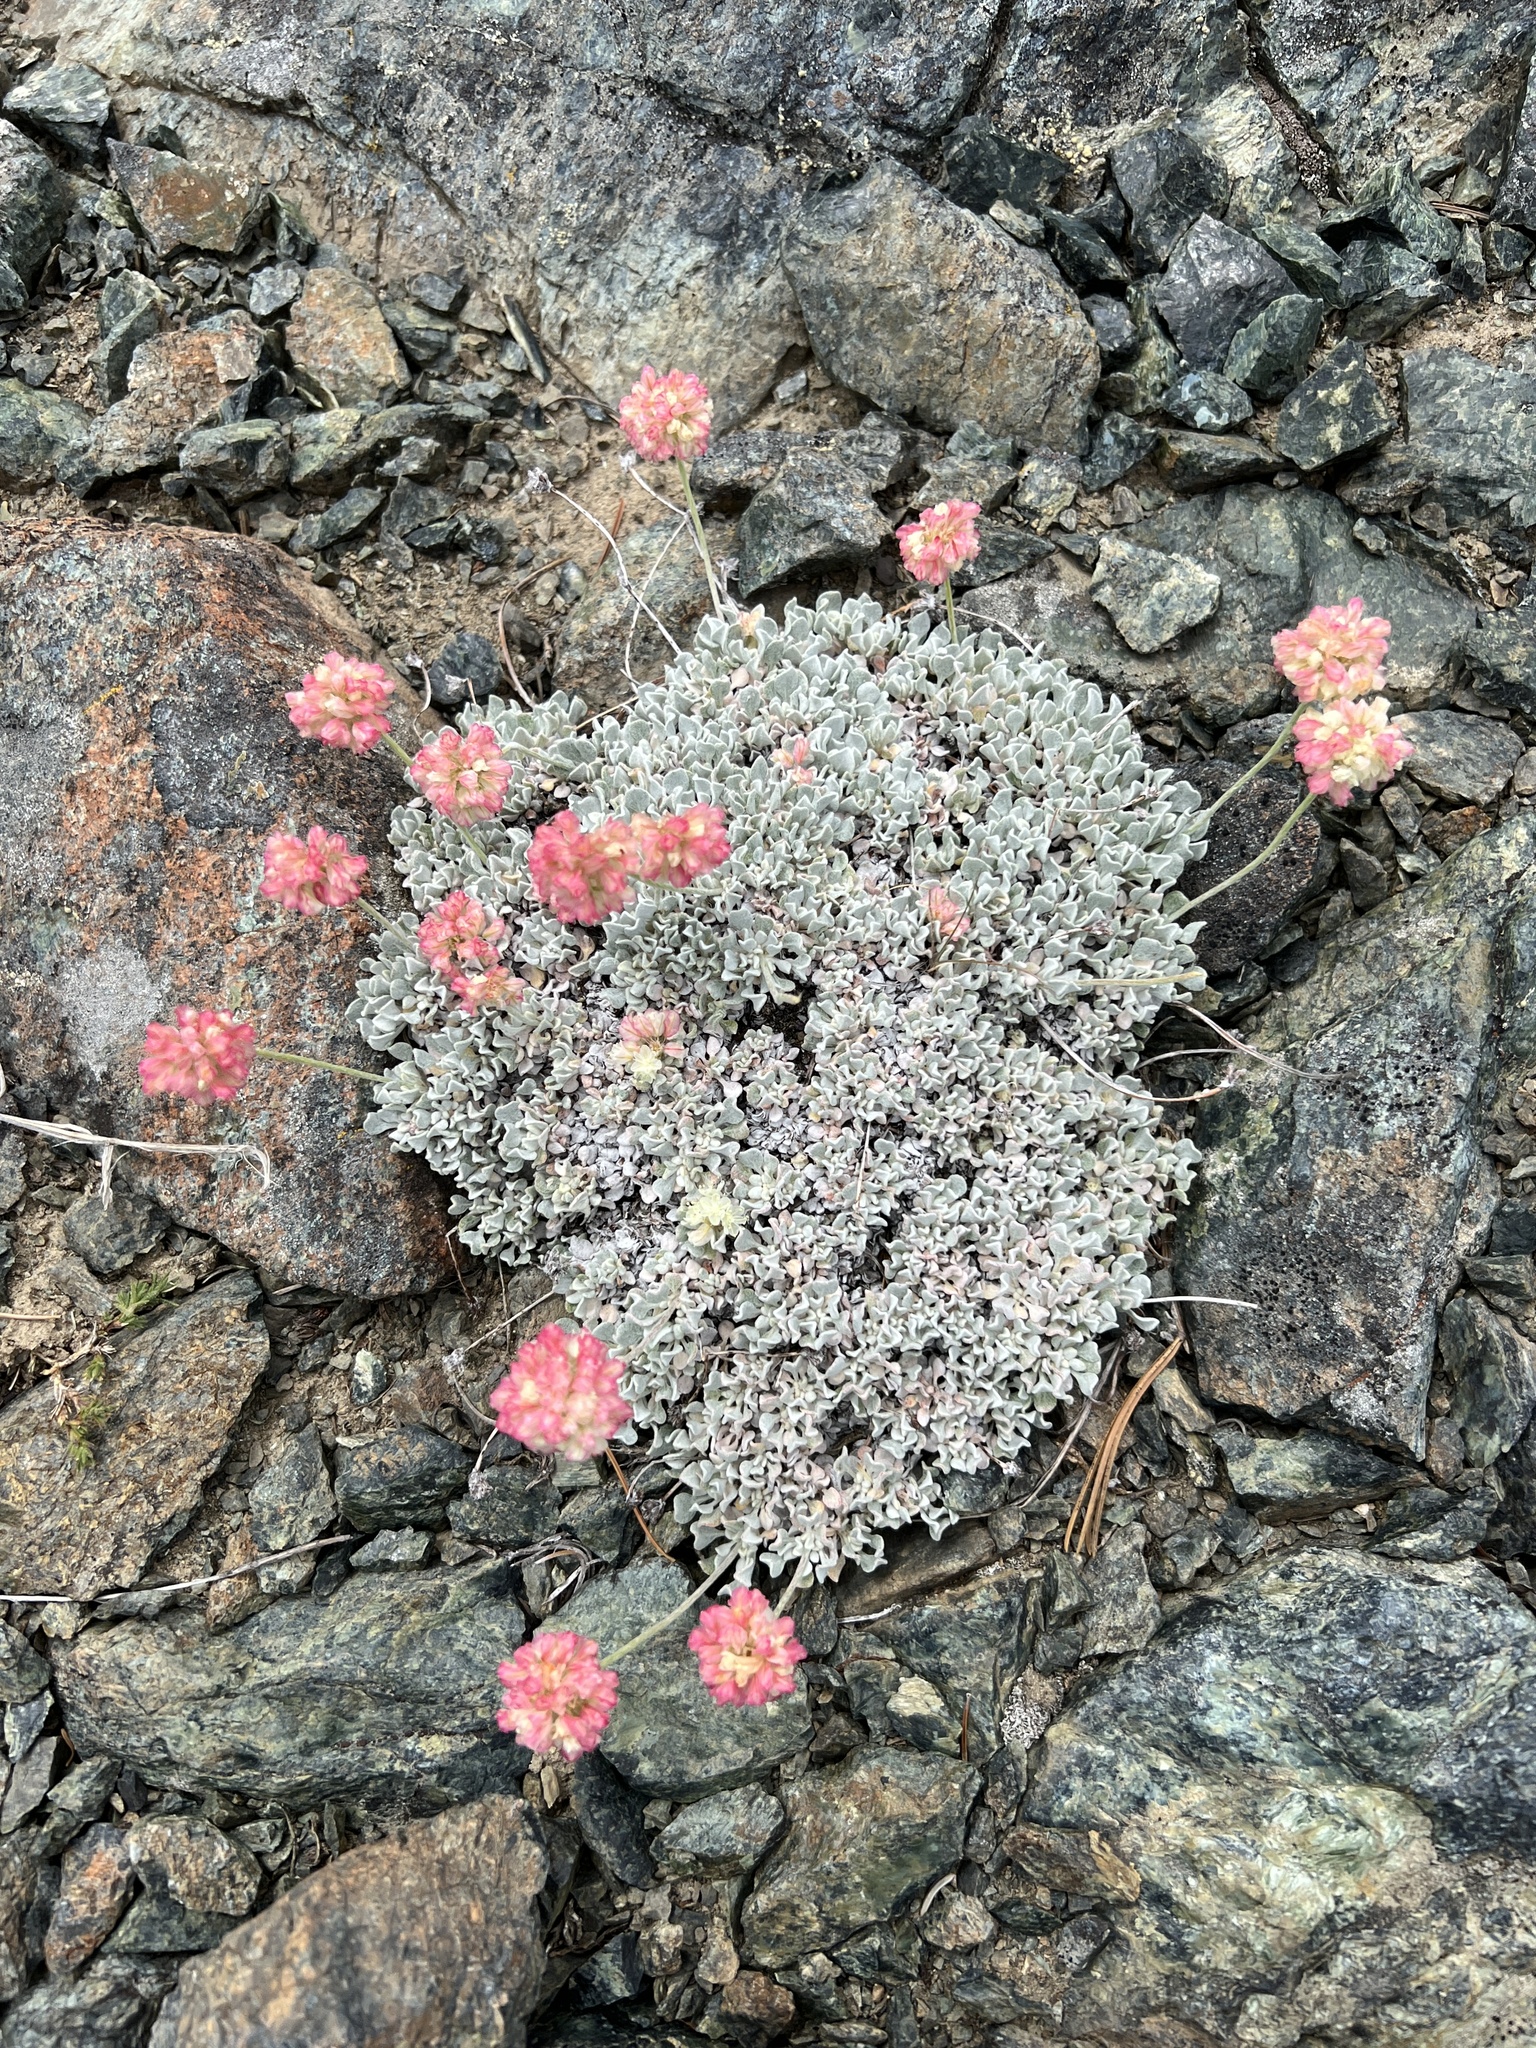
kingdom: Plantae
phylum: Tracheophyta
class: Magnoliopsida
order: Caryophyllales
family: Polygonaceae
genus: Eriogonum
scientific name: Eriogonum ovalifolium
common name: Cushion buckwheat
